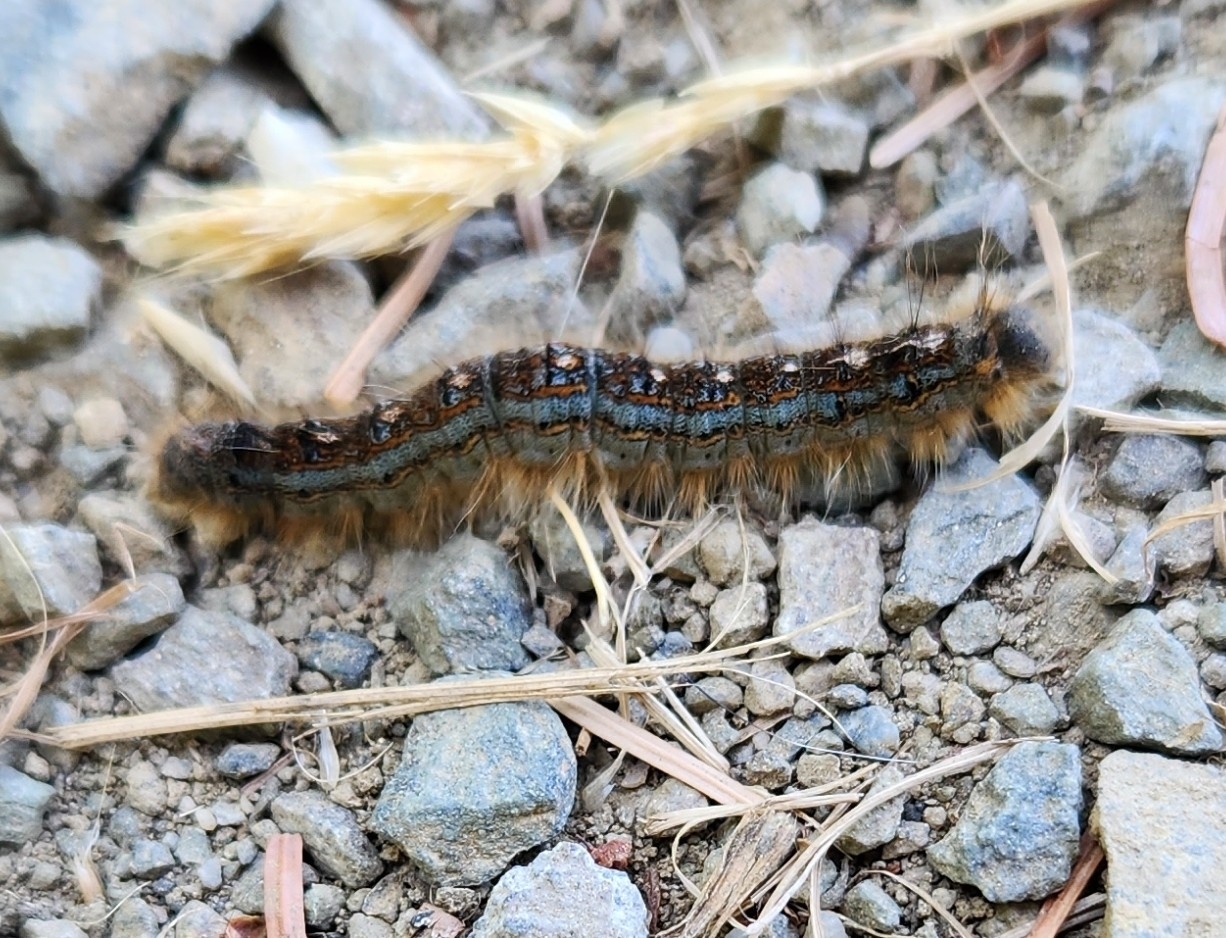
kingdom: Animalia
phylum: Arthropoda
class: Insecta
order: Lepidoptera
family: Lasiocampidae
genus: Malacosoma
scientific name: Malacosoma disstria
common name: Forest tent caterpillar
